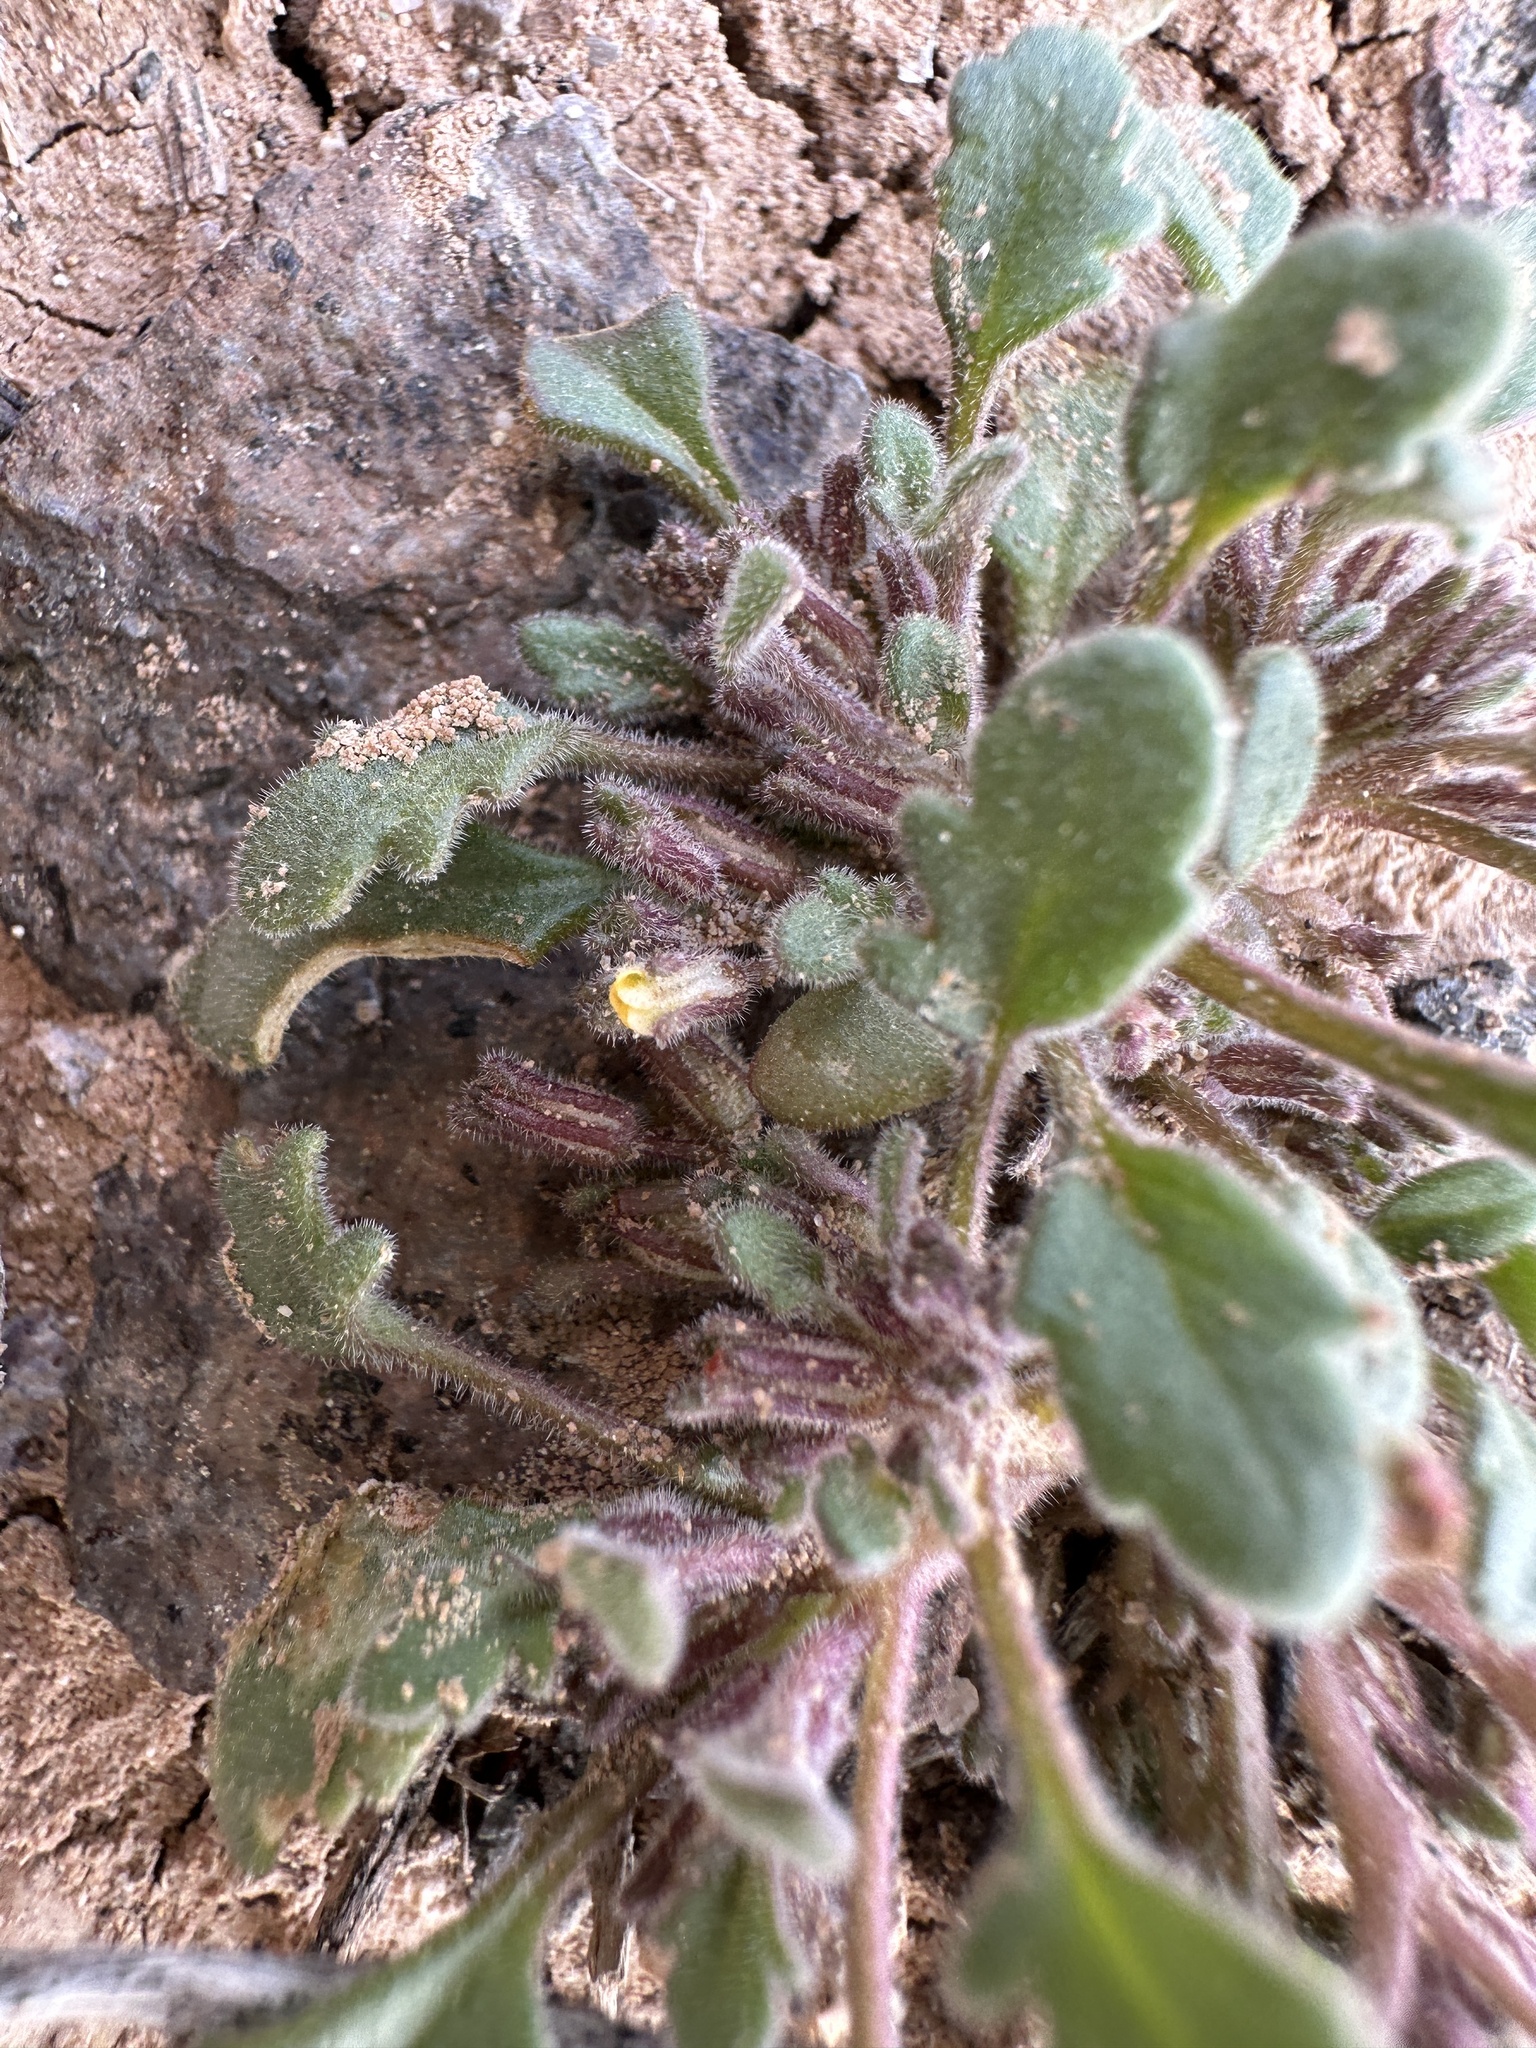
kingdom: Plantae
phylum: Tracheophyta
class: Magnoliopsida
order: Boraginales
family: Hydrophyllaceae
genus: Phacelia
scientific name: Phacelia scopulina
